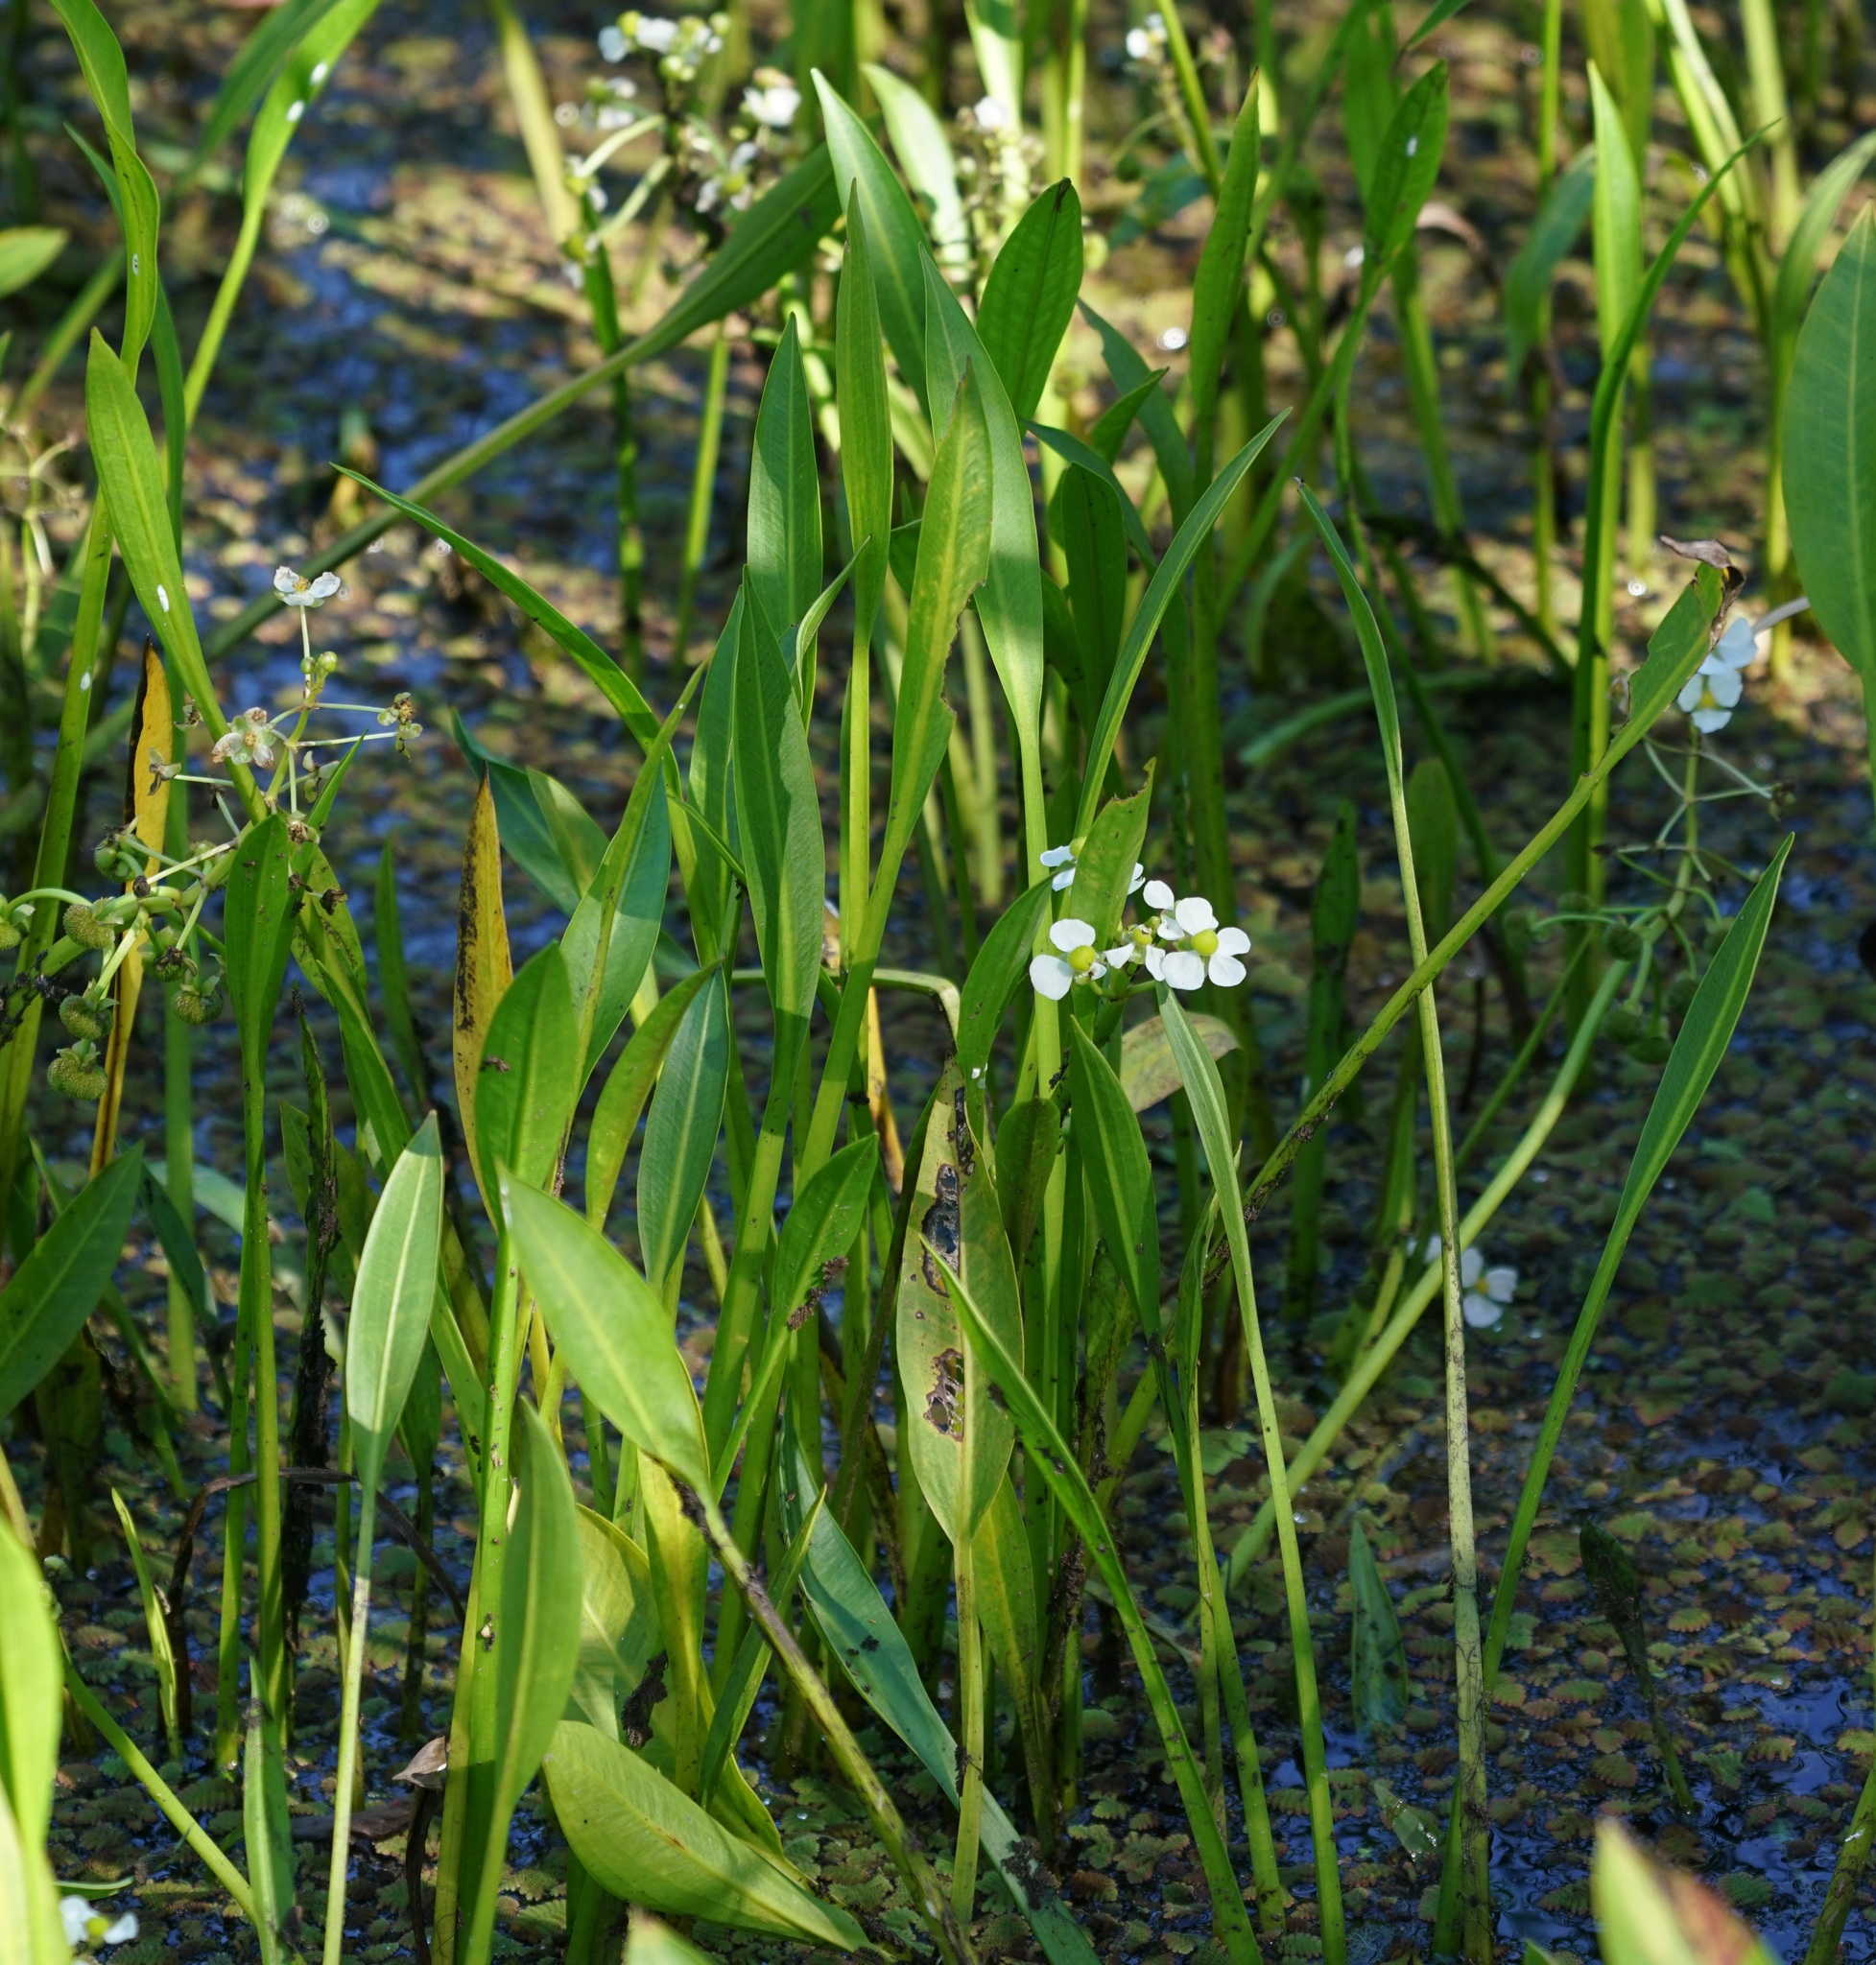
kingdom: Plantae
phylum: Tracheophyta
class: Liliopsida
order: Alismatales
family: Alismataceae
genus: Sagittaria
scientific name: Sagittaria platyphylla
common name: Broad-leaf arrowhead
